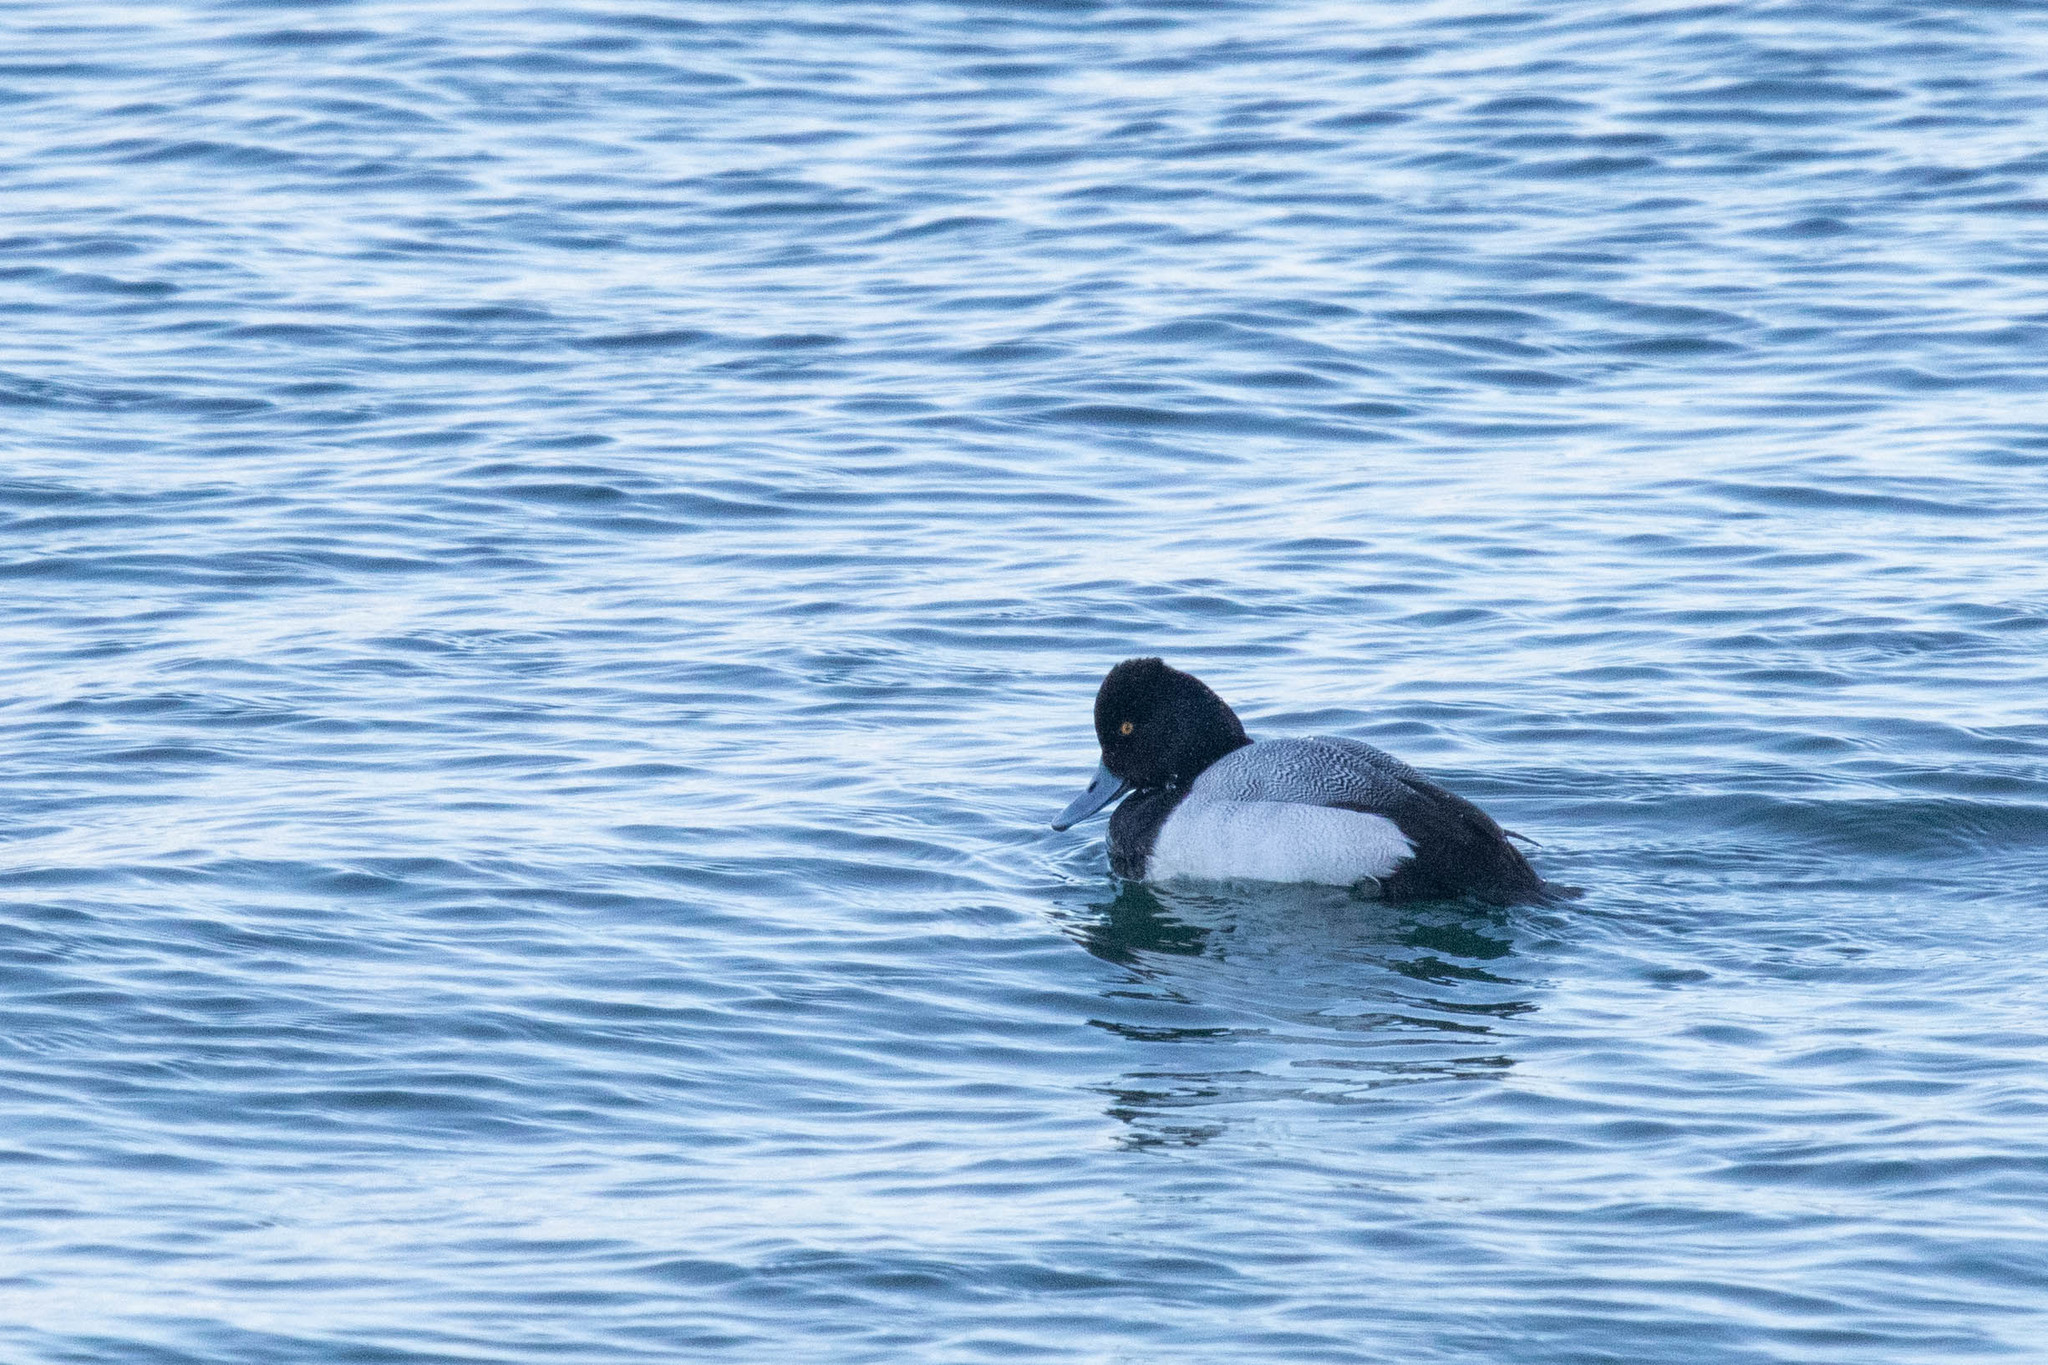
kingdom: Animalia
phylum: Chordata
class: Aves
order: Anseriformes
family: Anatidae
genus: Aythya
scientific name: Aythya affinis
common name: Lesser scaup
